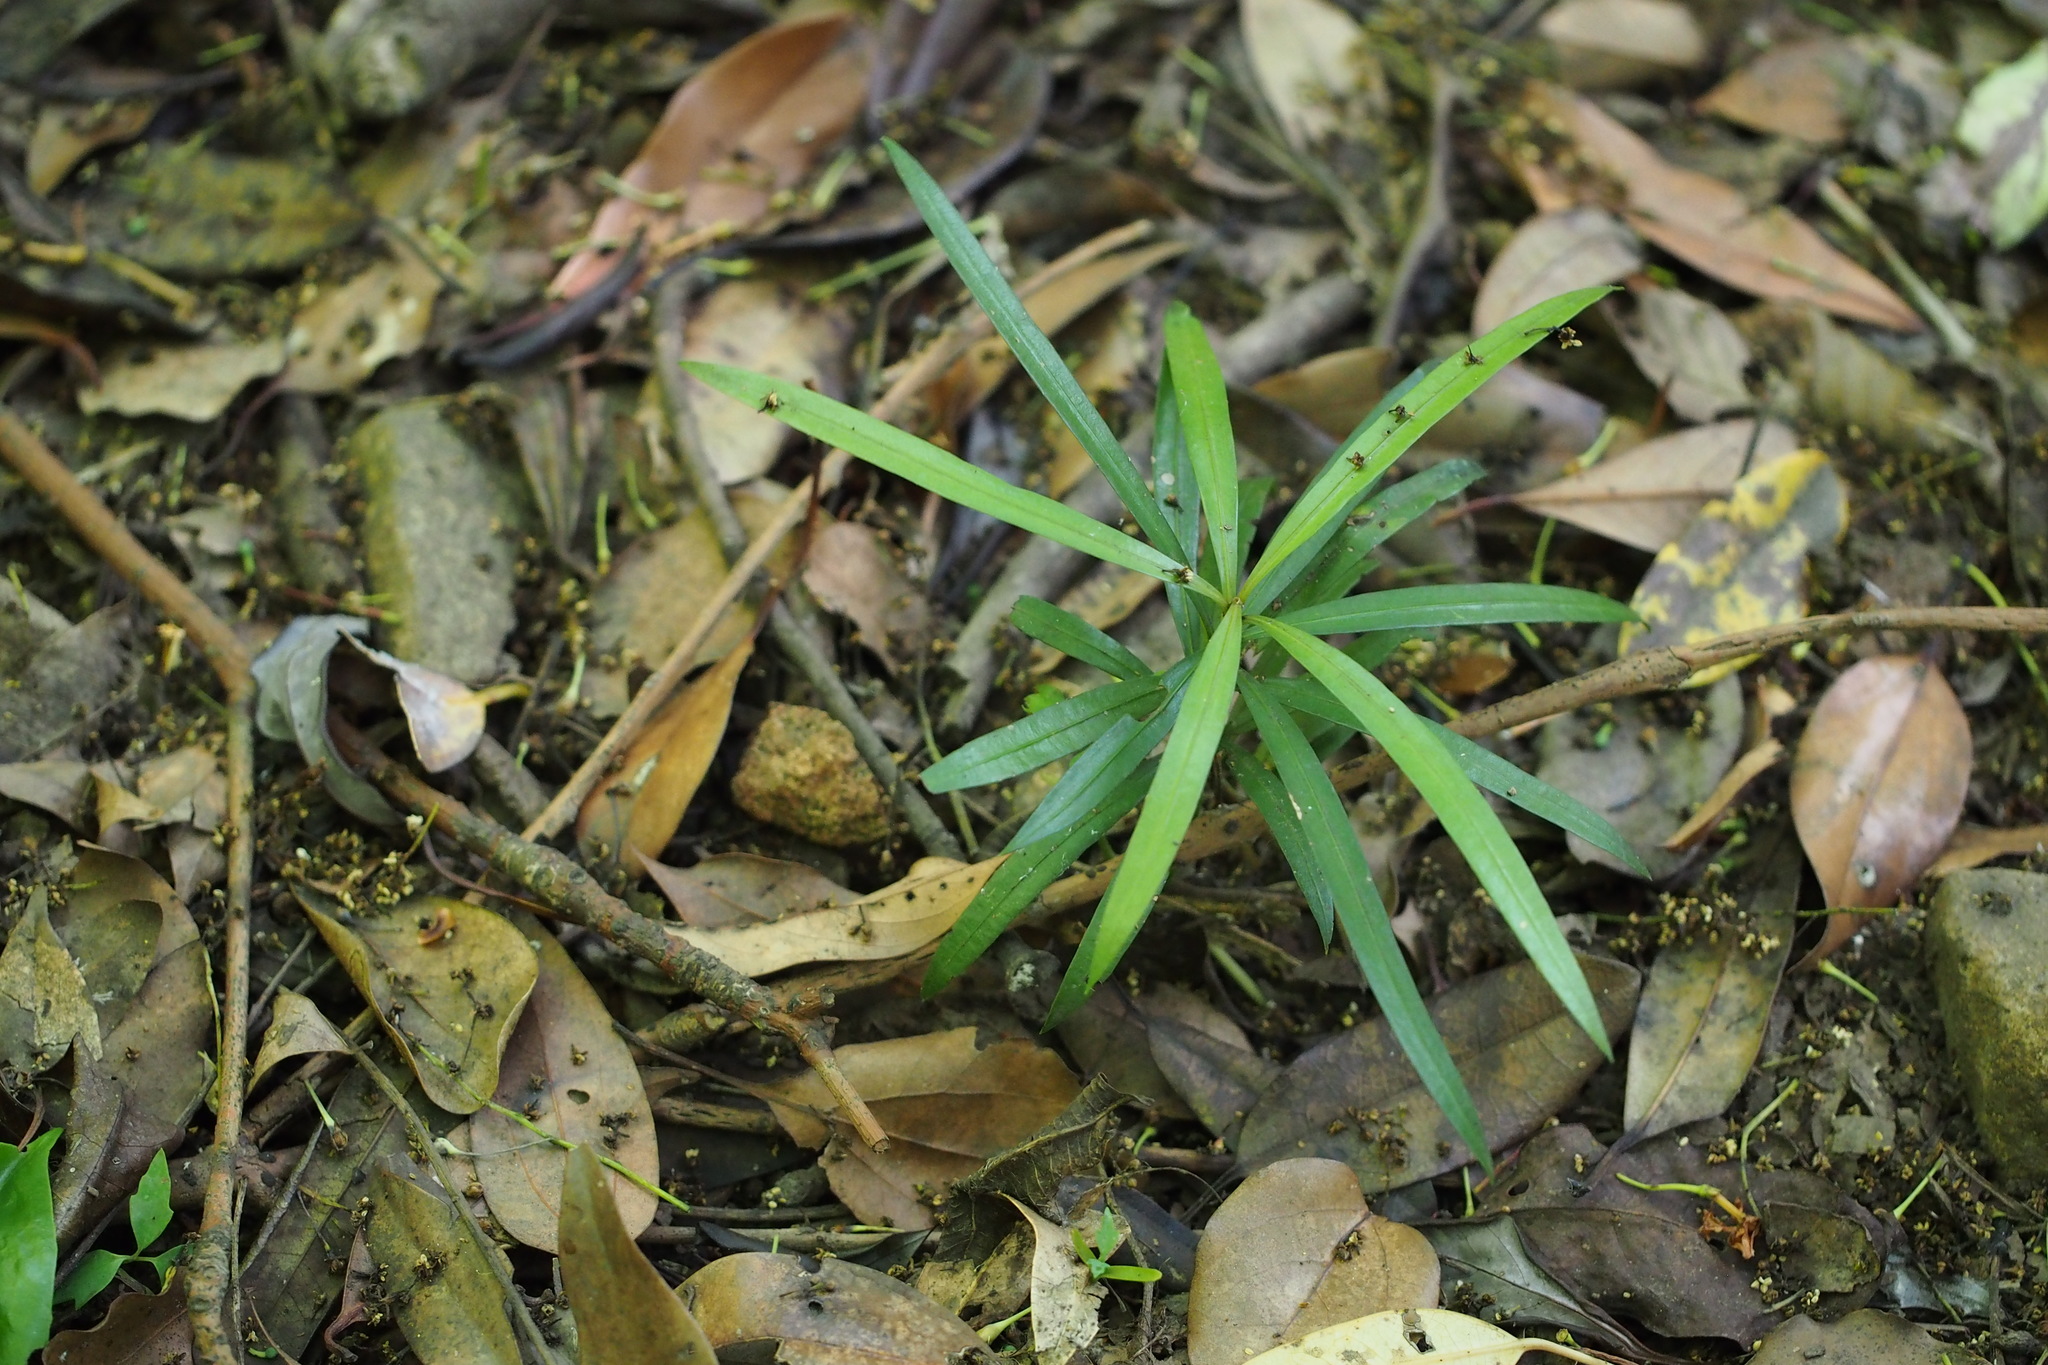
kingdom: Plantae
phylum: Tracheophyta
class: Pinopsida
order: Pinales
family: Podocarpaceae
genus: Podocarpus
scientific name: Podocarpus macrophyllus
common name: Japanese yew
